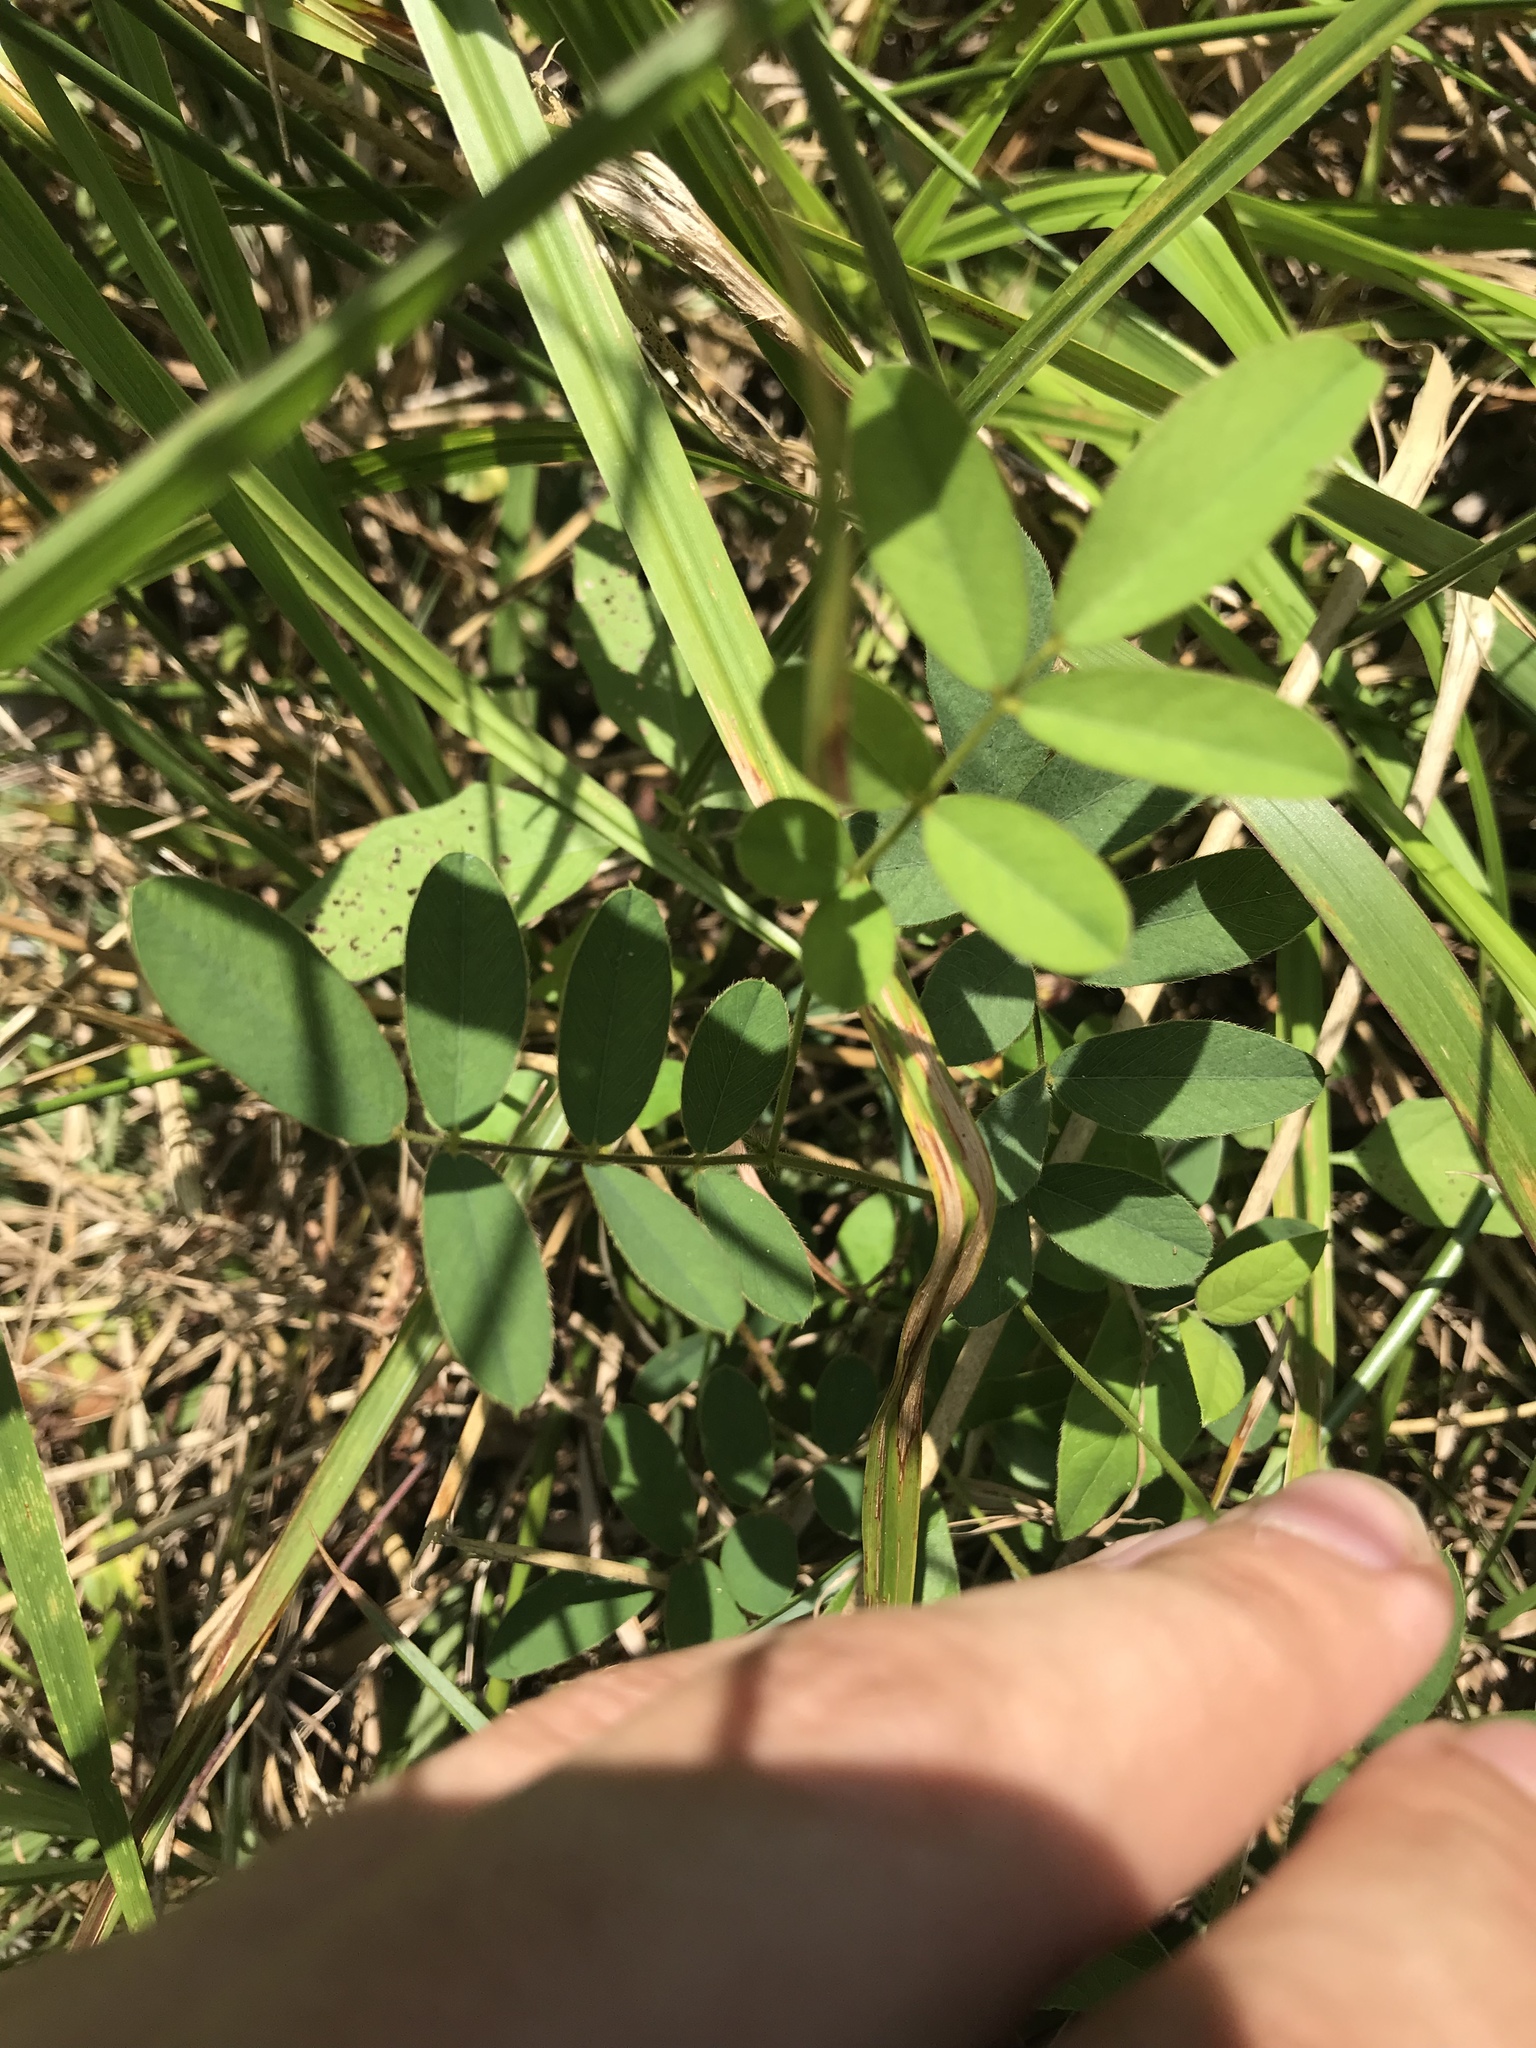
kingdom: Plantae
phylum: Tracheophyta
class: Magnoliopsida
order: Fabales
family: Fabaceae
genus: Tephrosia
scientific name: Tephrosia spicata
